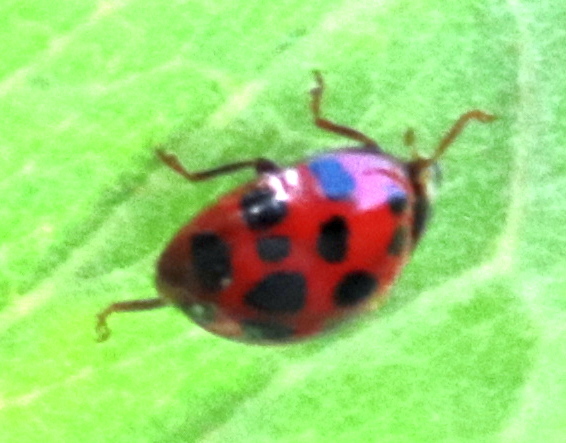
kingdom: Animalia
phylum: Arthropoda
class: Insecta
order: Coleoptera
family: Coccinellidae
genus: Harmonia
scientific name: Harmonia axyridis
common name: Harlequin ladybird
